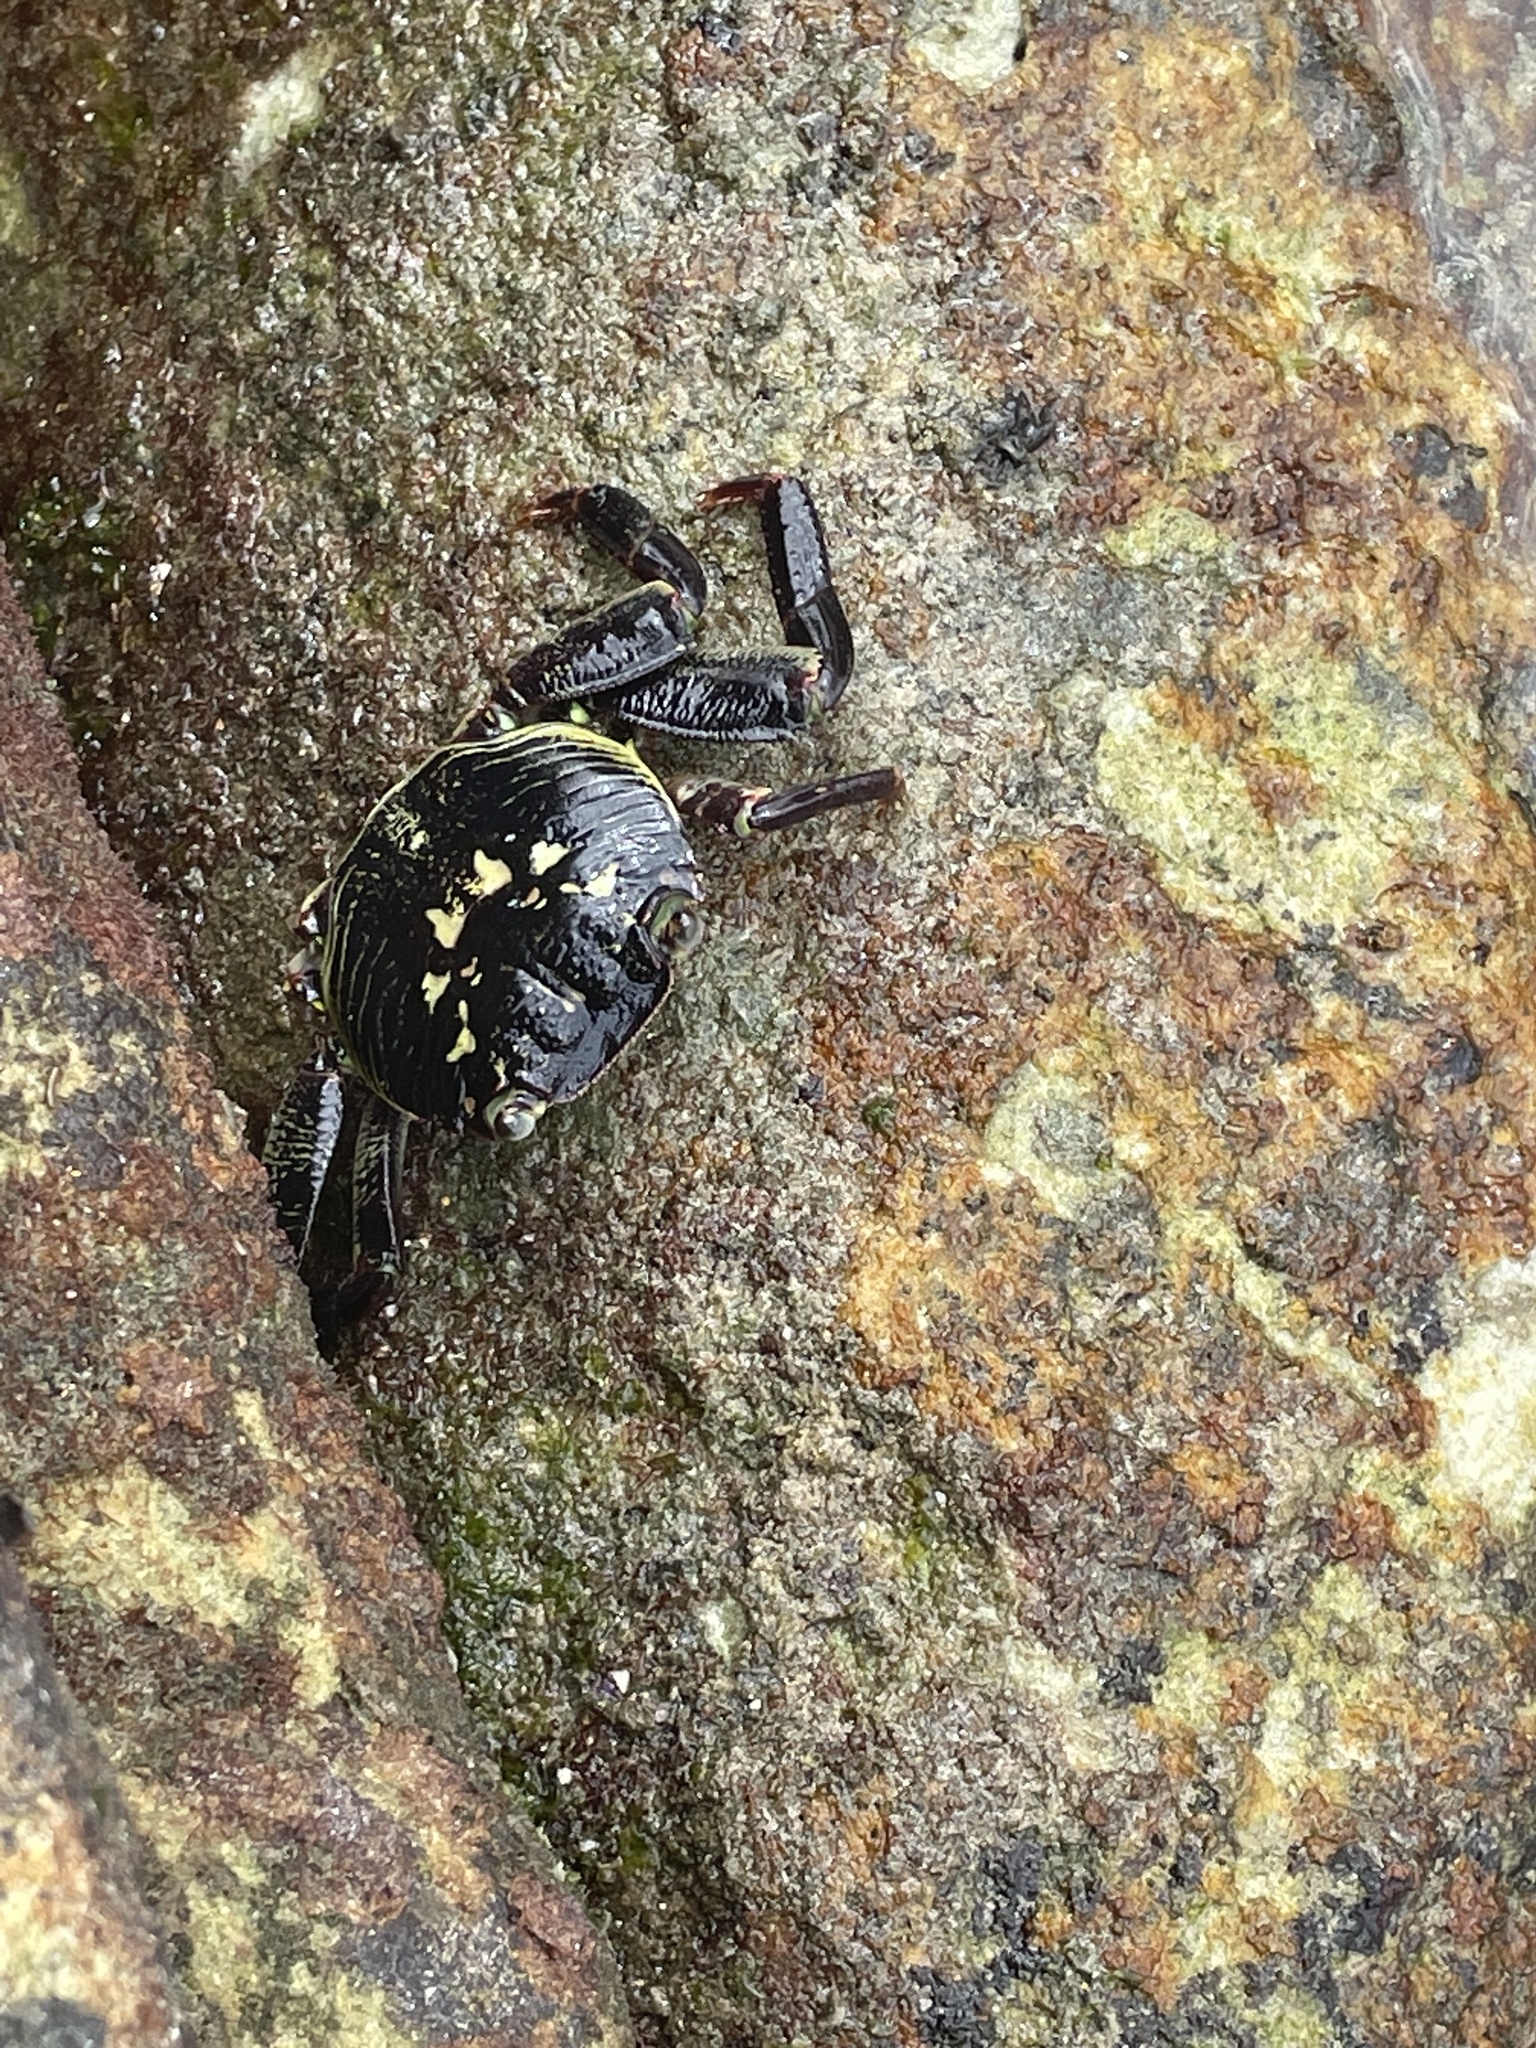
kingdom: Animalia
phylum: Arthropoda
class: Malacostraca
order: Decapoda
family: Grapsidae
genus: Leptograpsus
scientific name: Leptograpsus variegatus
